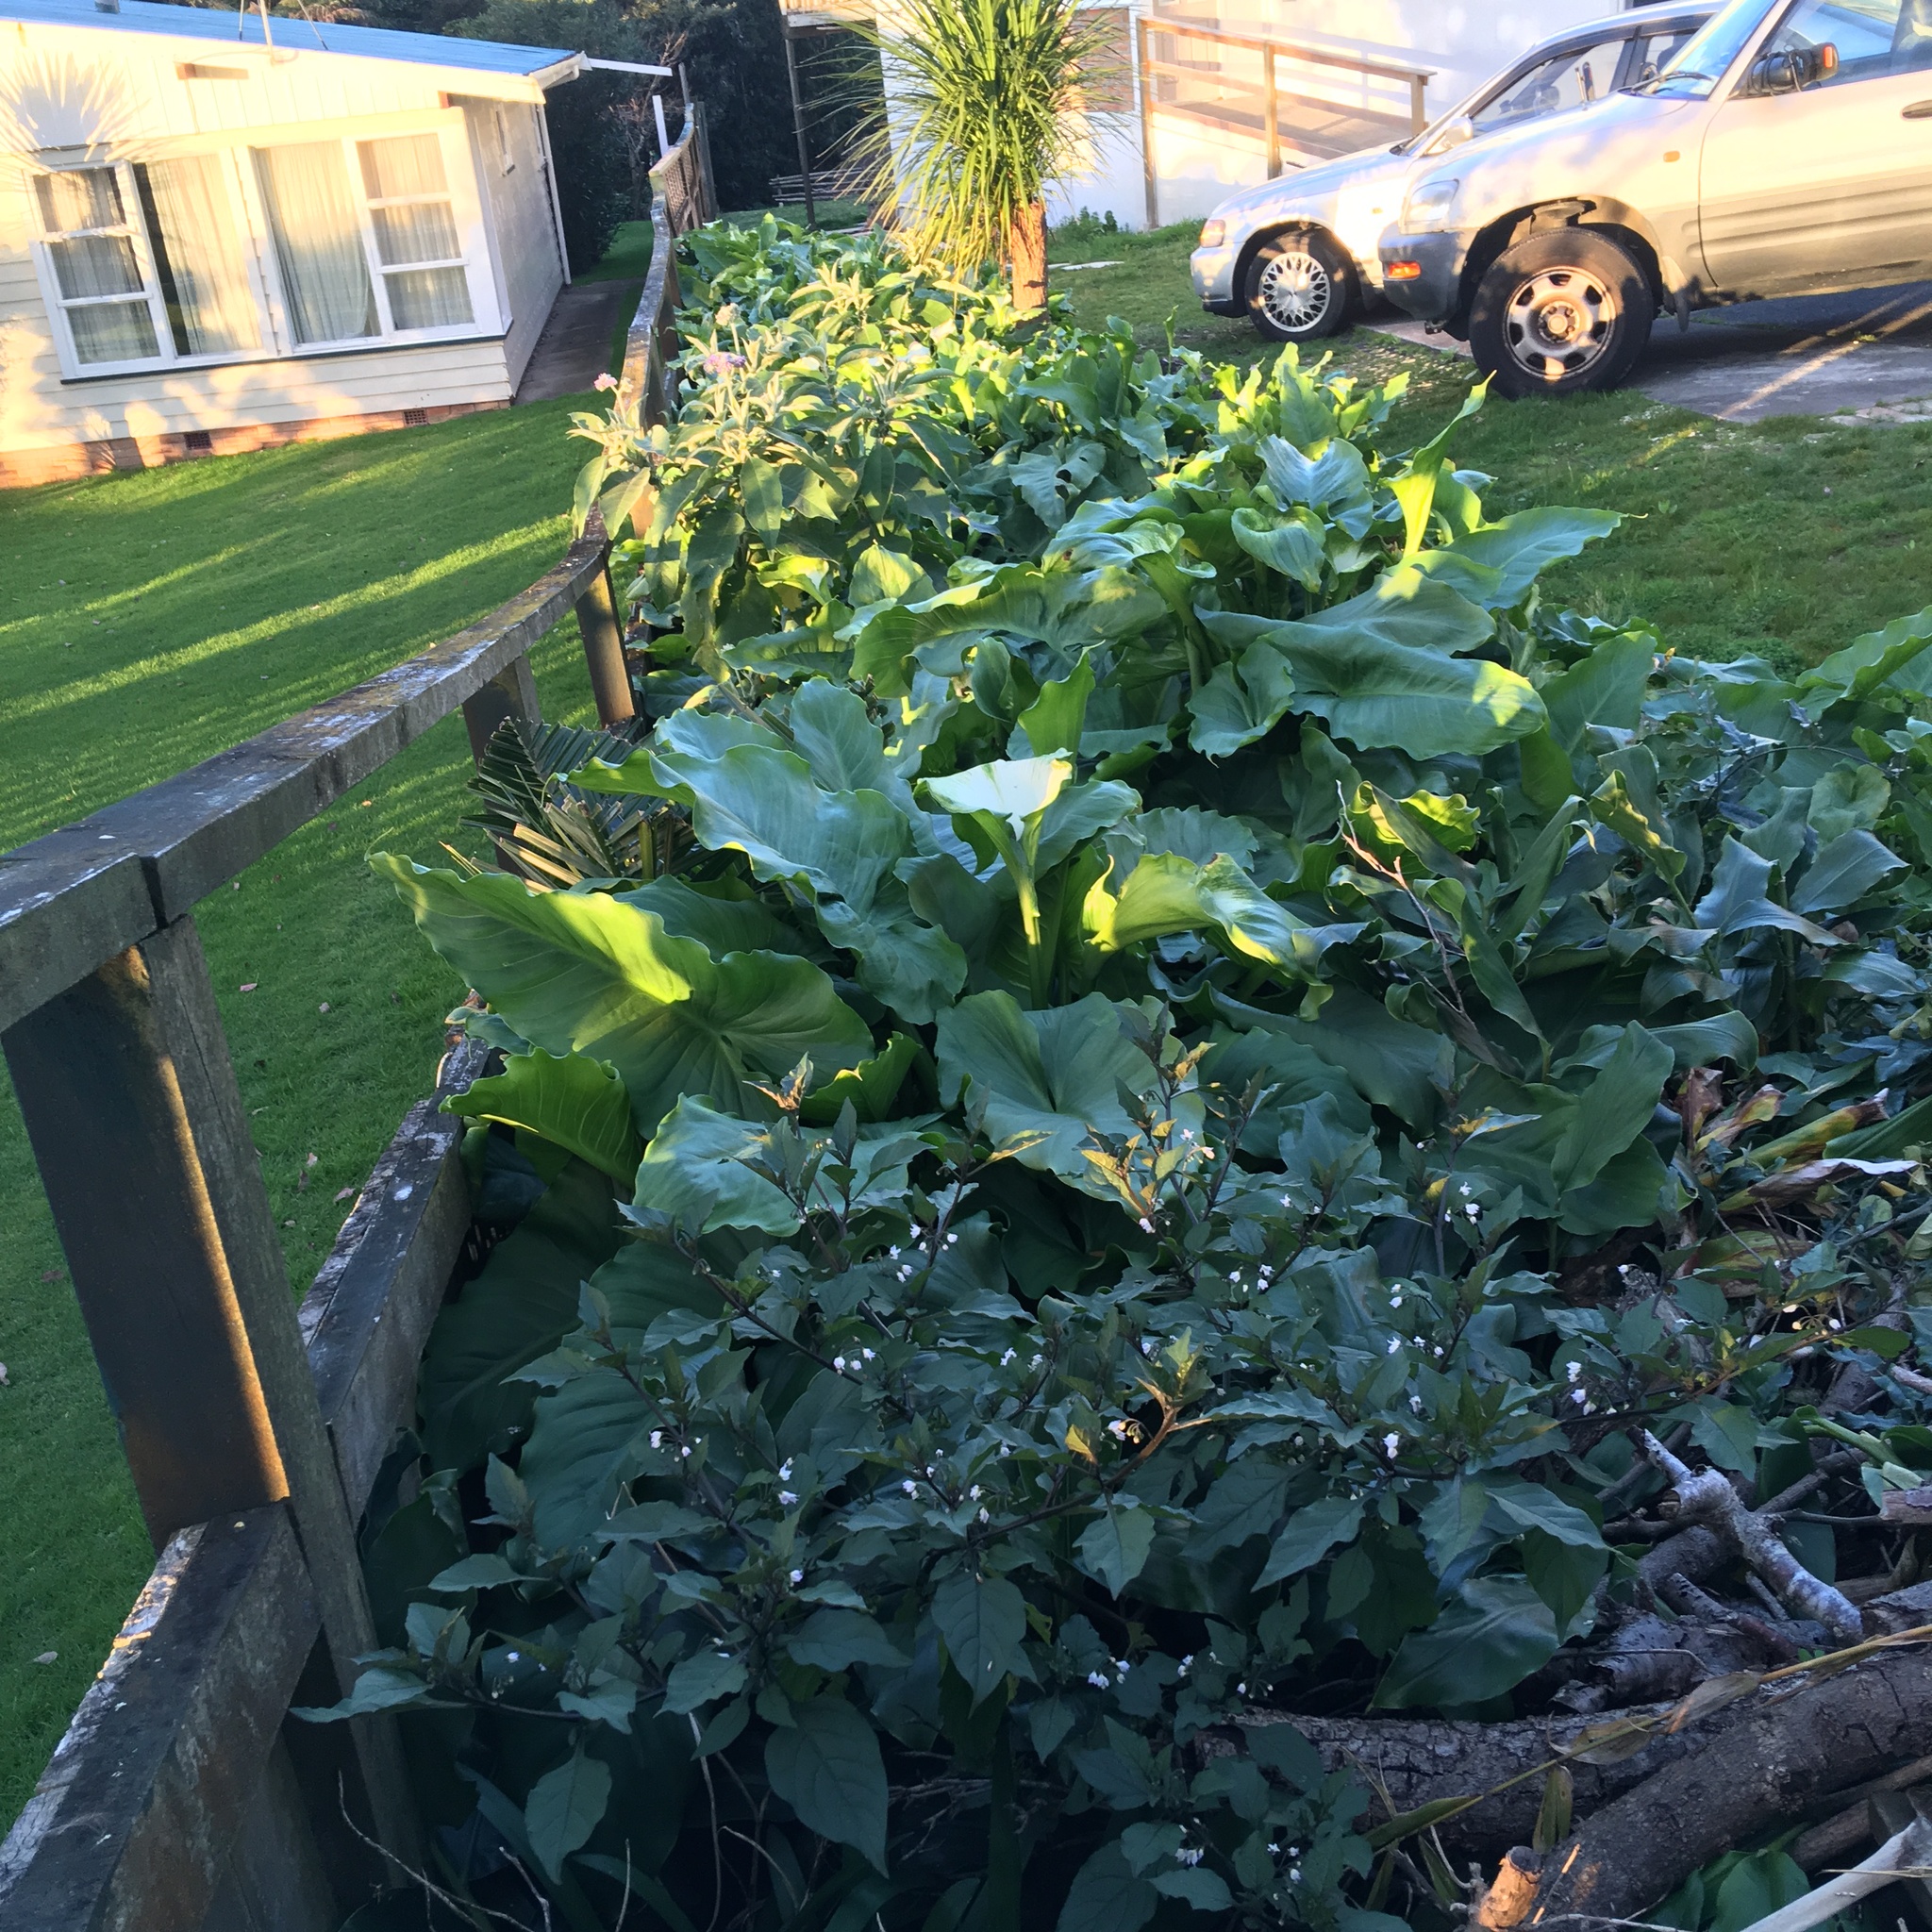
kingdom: Plantae
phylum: Tracheophyta
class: Liliopsida
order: Alismatales
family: Araceae
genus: Zantedeschia
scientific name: Zantedeschia aethiopica
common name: Altar-lily
